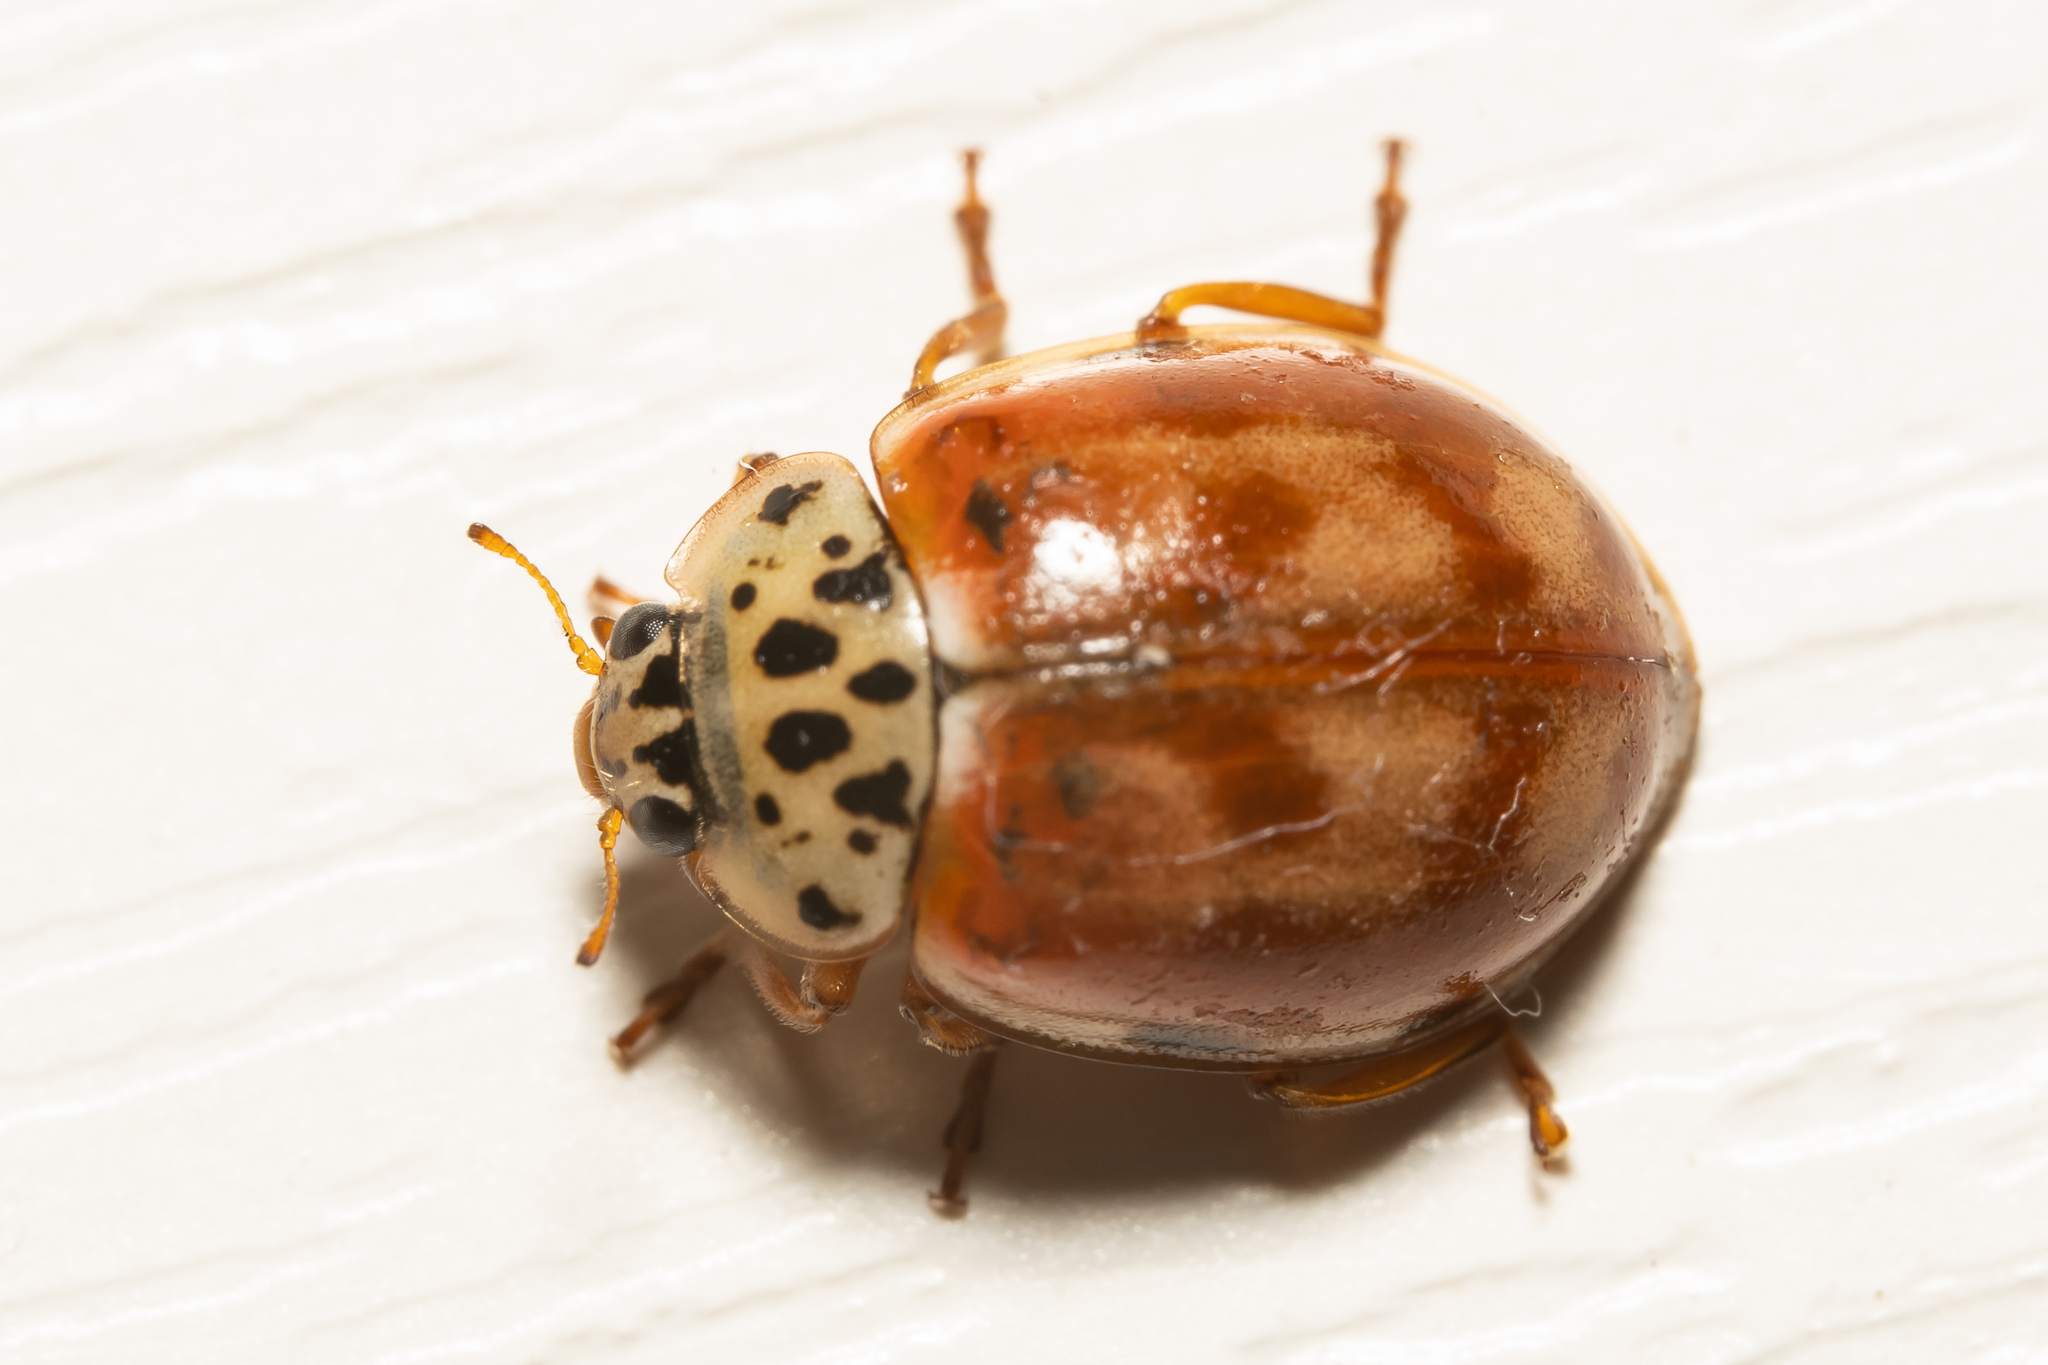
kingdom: Animalia
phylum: Arthropoda
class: Insecta
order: Coleoptera
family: Coccinellidae
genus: Harmonia
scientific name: Harmonia quadripunctata
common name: Cream-streaked ladybird
